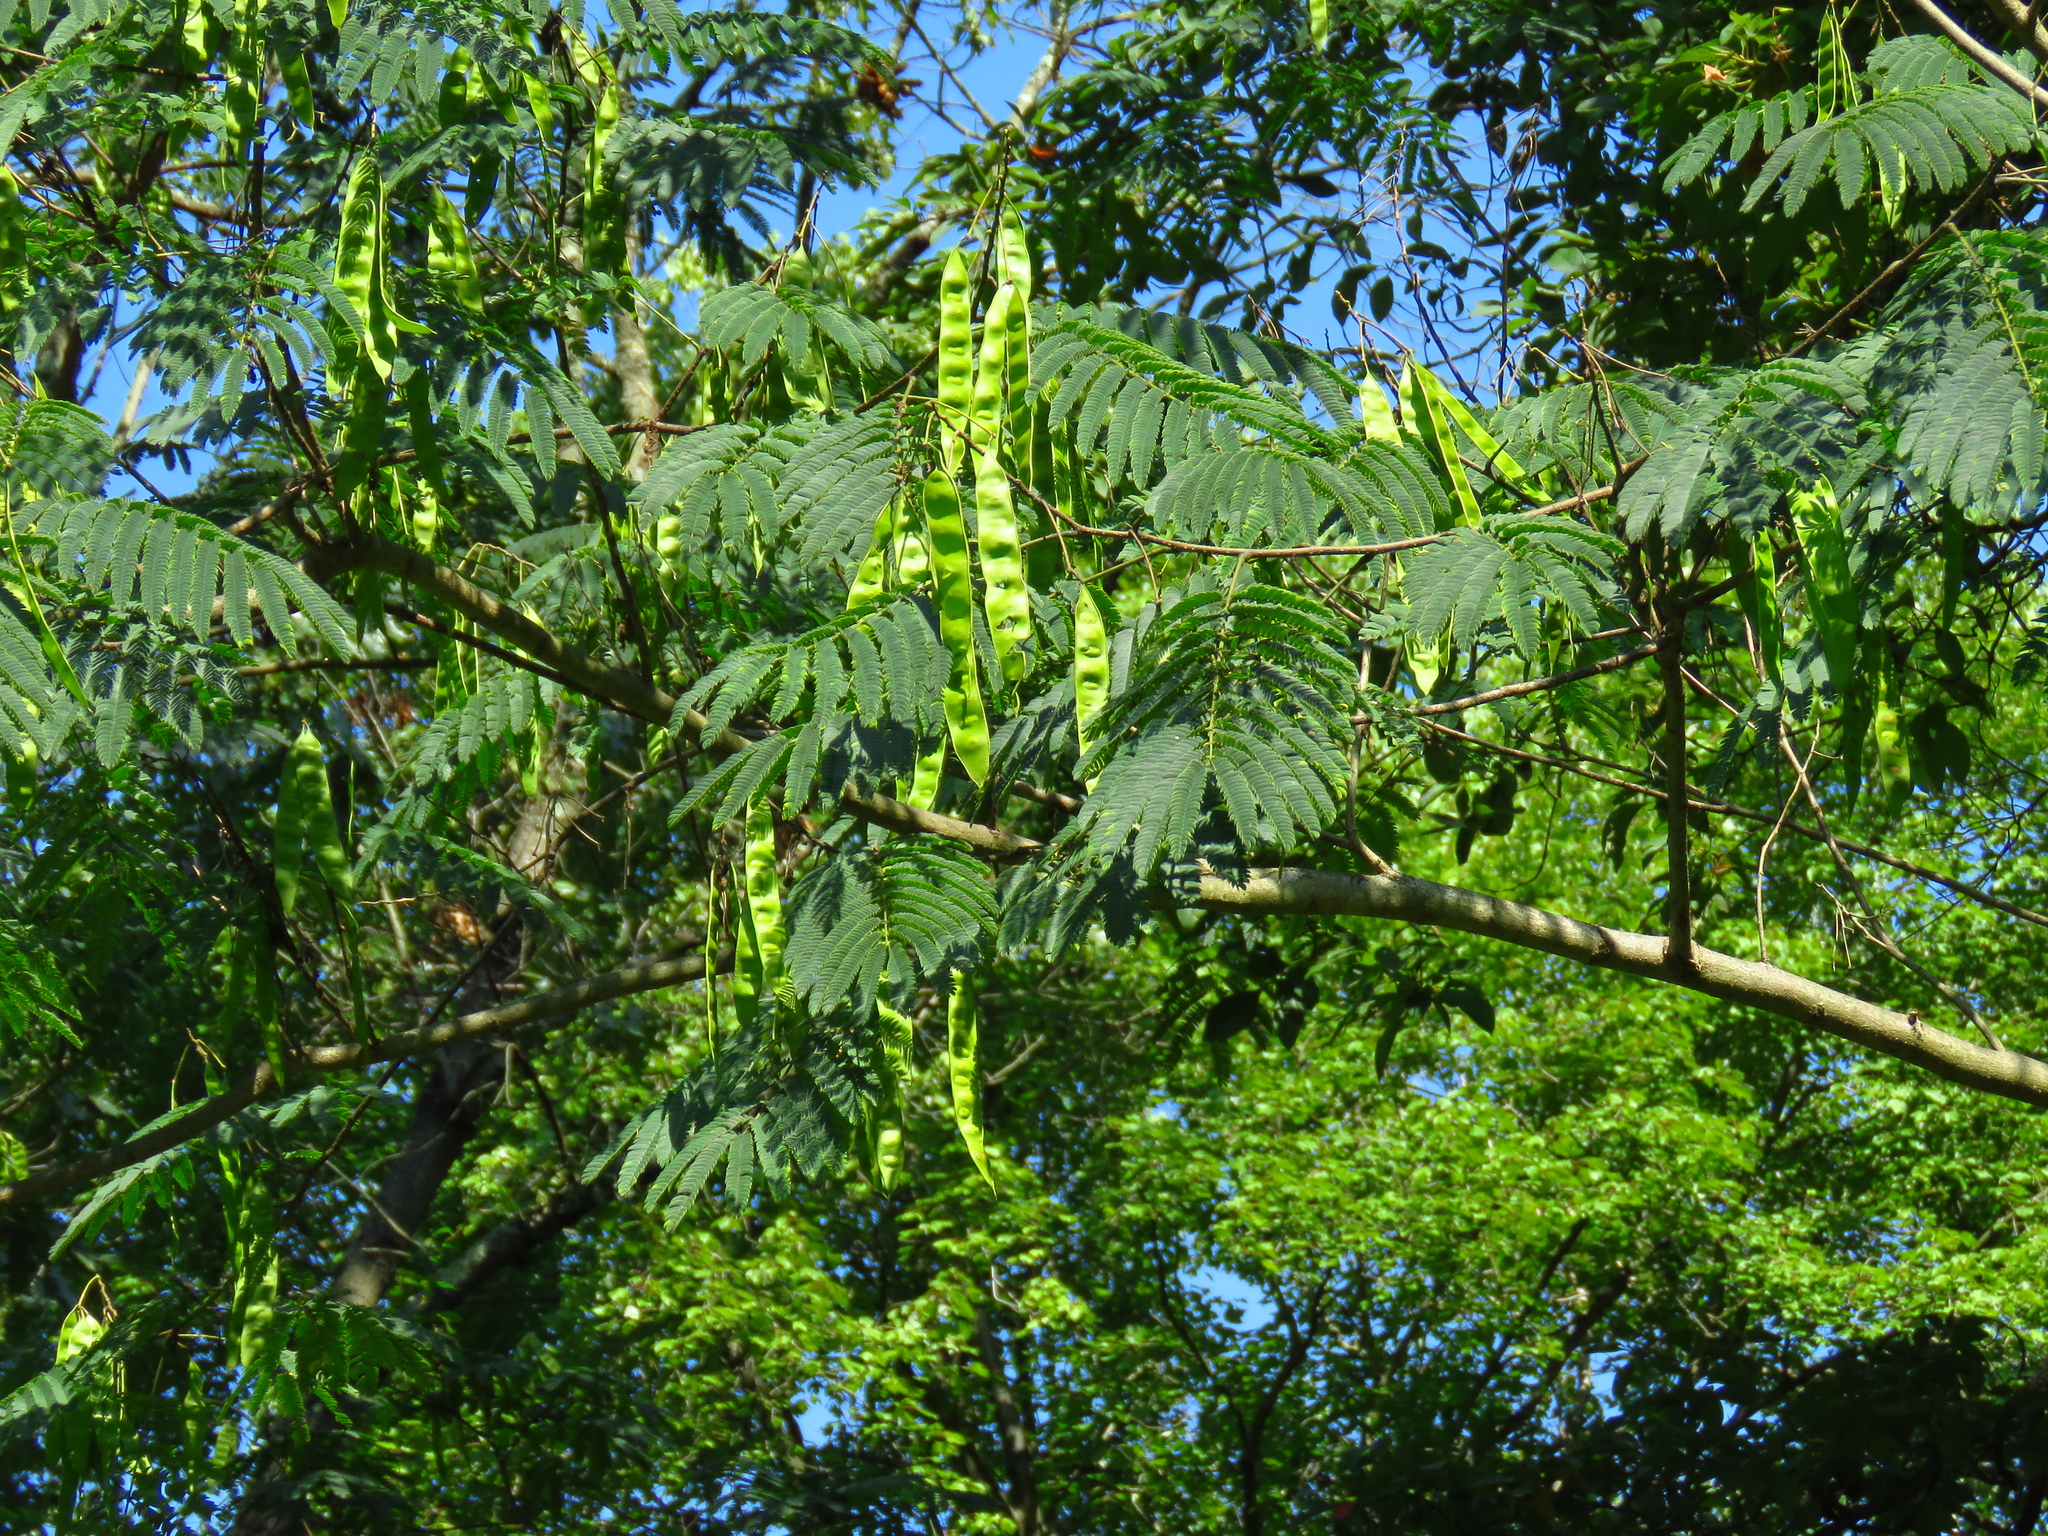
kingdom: Plantae
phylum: Tracheophyta
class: Magnoliopsida
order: Fabales
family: Fabaceae
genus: Albizia
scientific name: Albizia julibrissin
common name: Silktree
